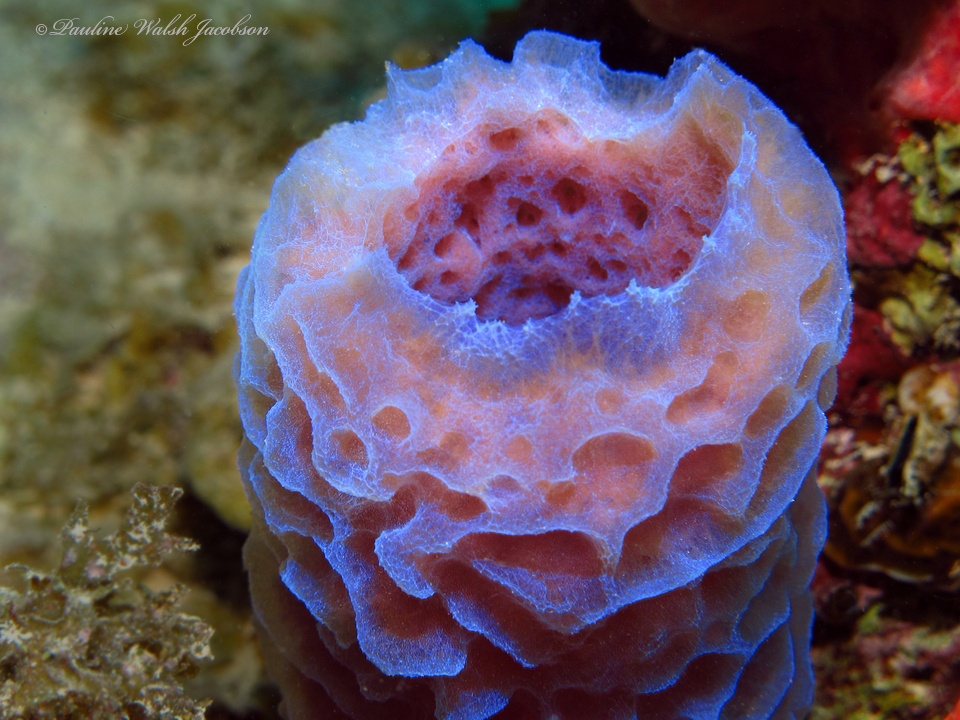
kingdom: Animalia
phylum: Porifera
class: Demospongiae
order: Haplosclerida
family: Callyspongiidae
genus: Callyspongia
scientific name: Callyspongia plicifera
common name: Azure vase sponge
